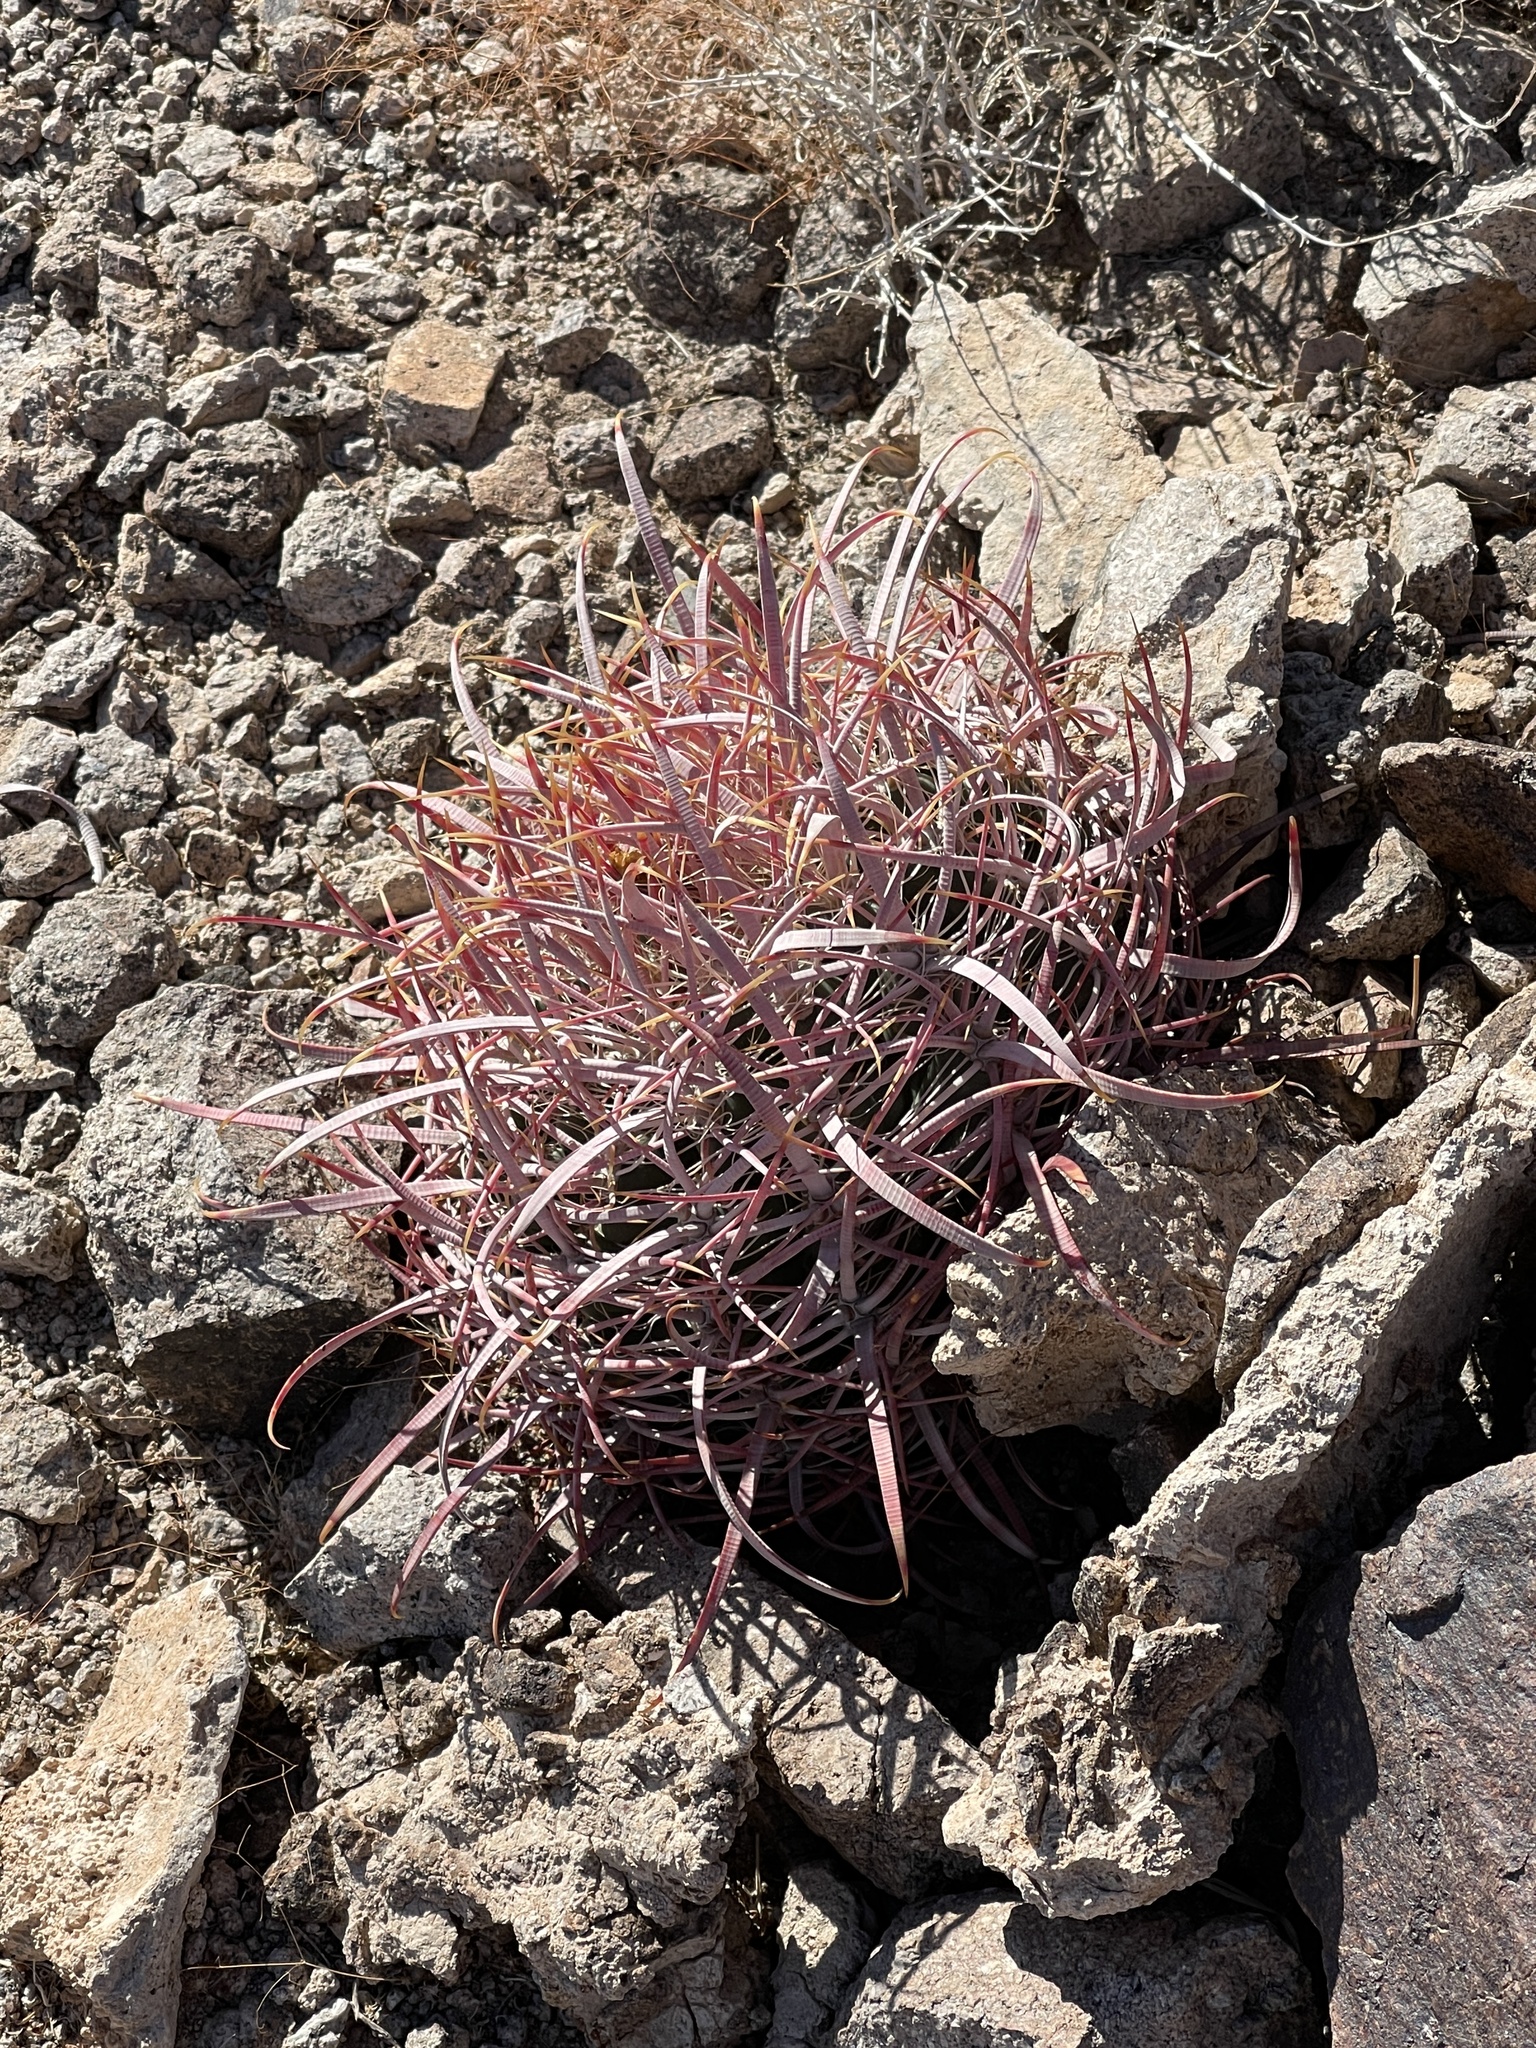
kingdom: Plantae
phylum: Tracheophyta
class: Magnoliopsida
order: Caryophyllales
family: Cactaceae
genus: Ferocactus
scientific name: Ferocactus cylindraceus
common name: California barrel cactus
